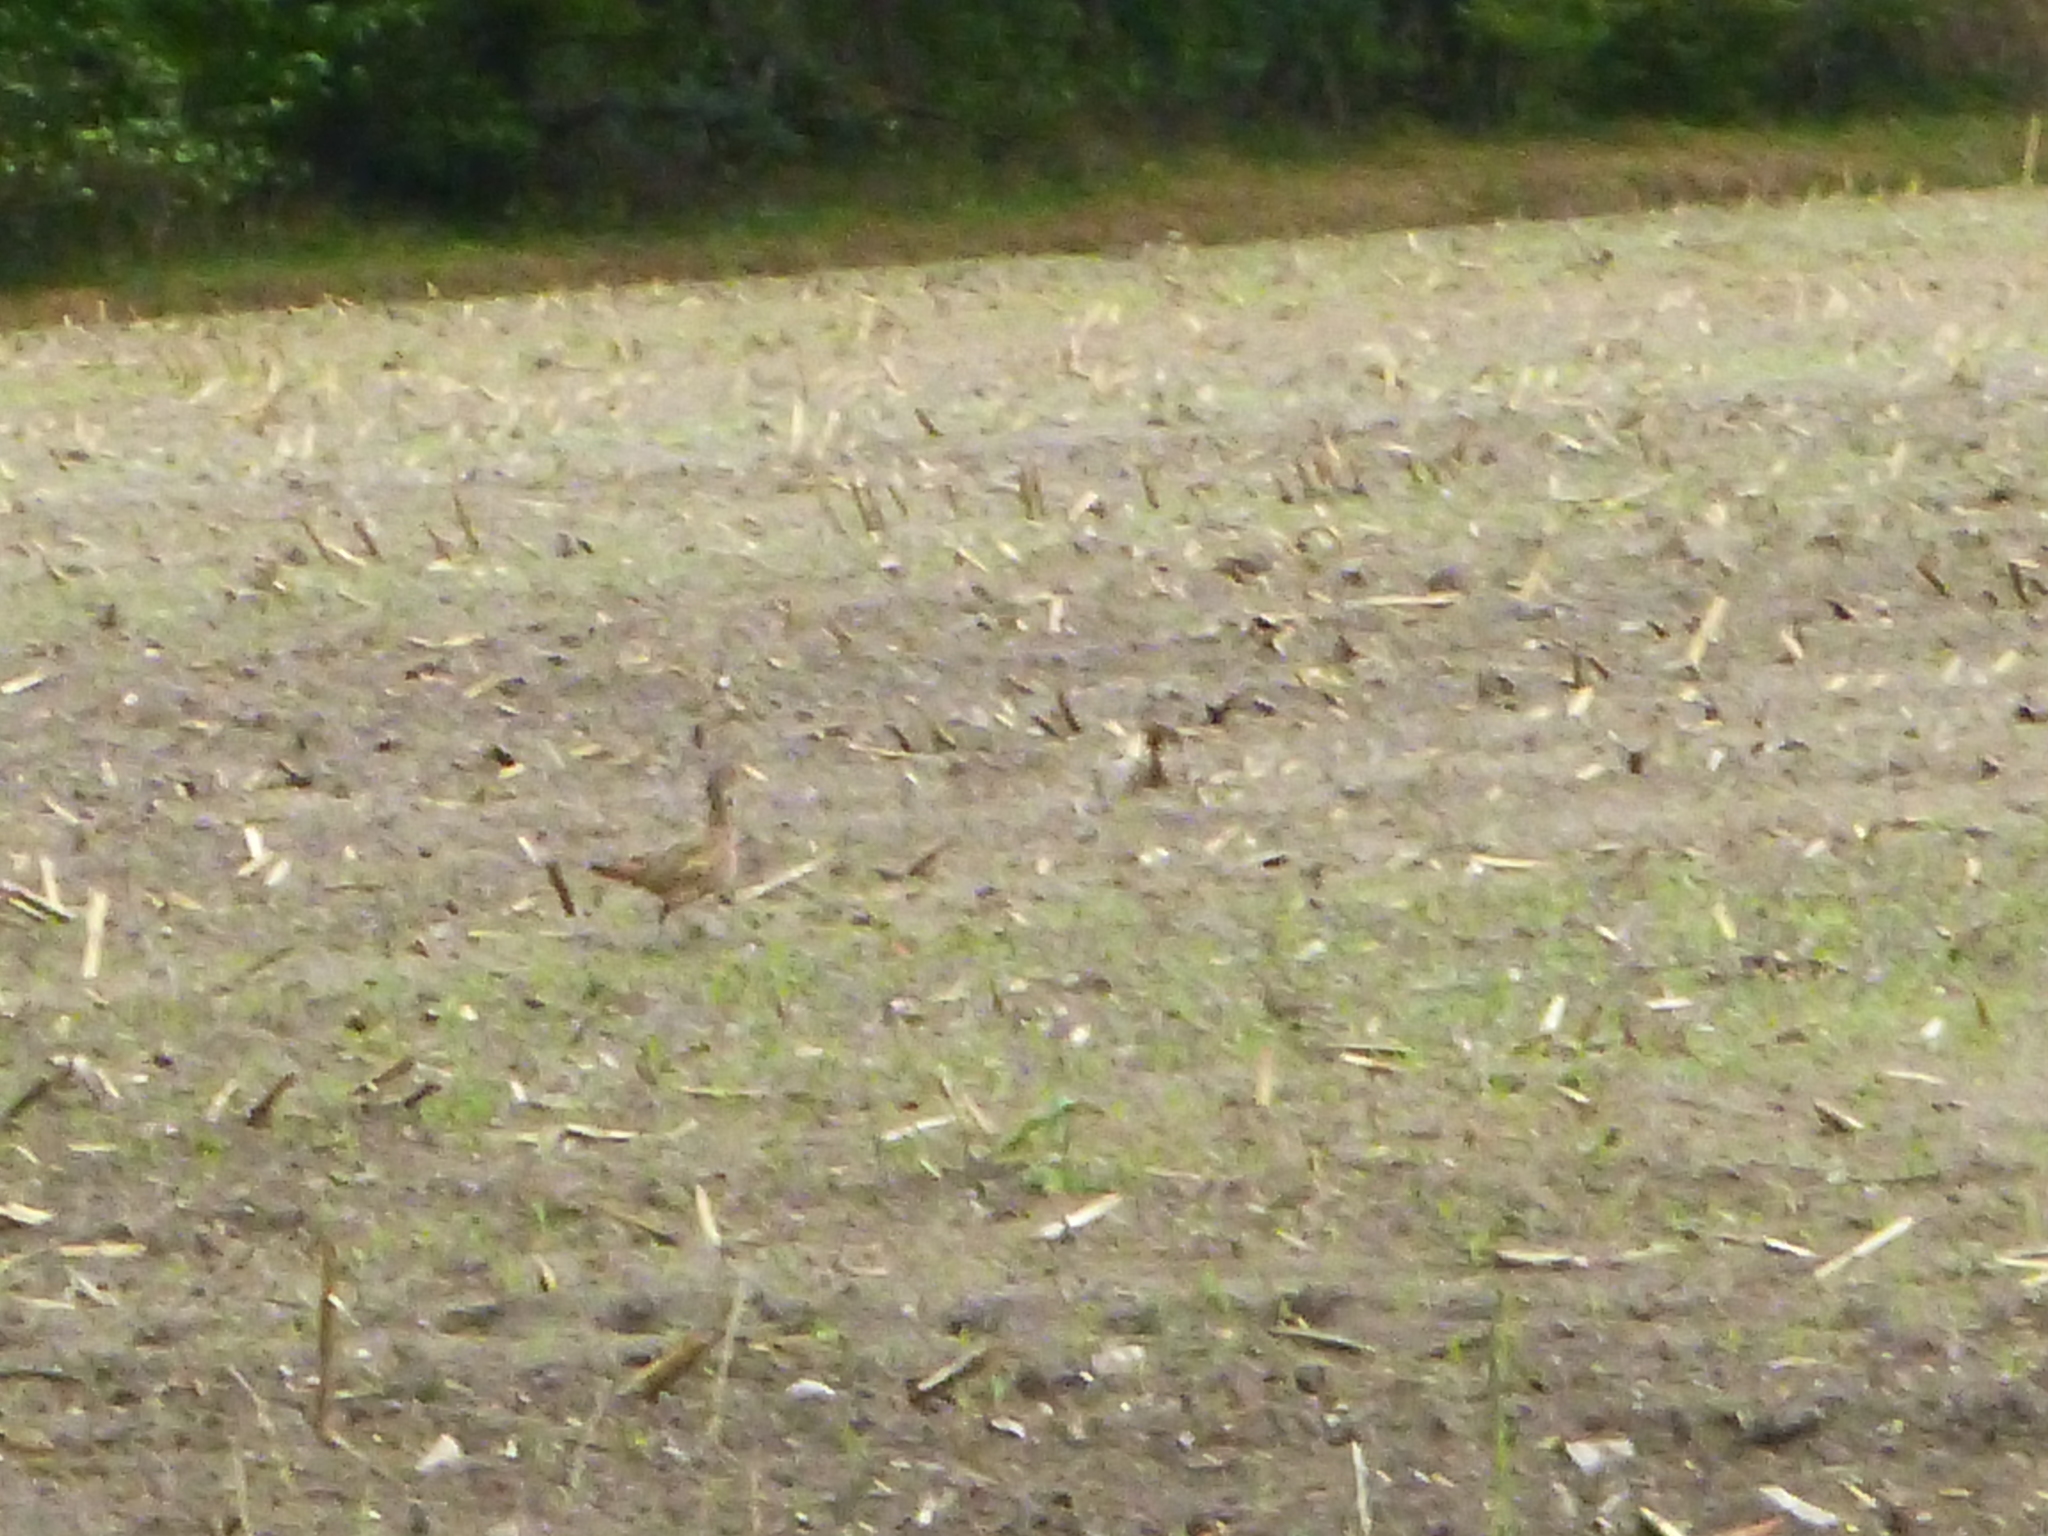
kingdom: Animalia
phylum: Chordata
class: Aves
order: Galliformes
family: Phasianidae
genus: Phasianus
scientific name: Phasianus colchicus
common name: Common pheasant
